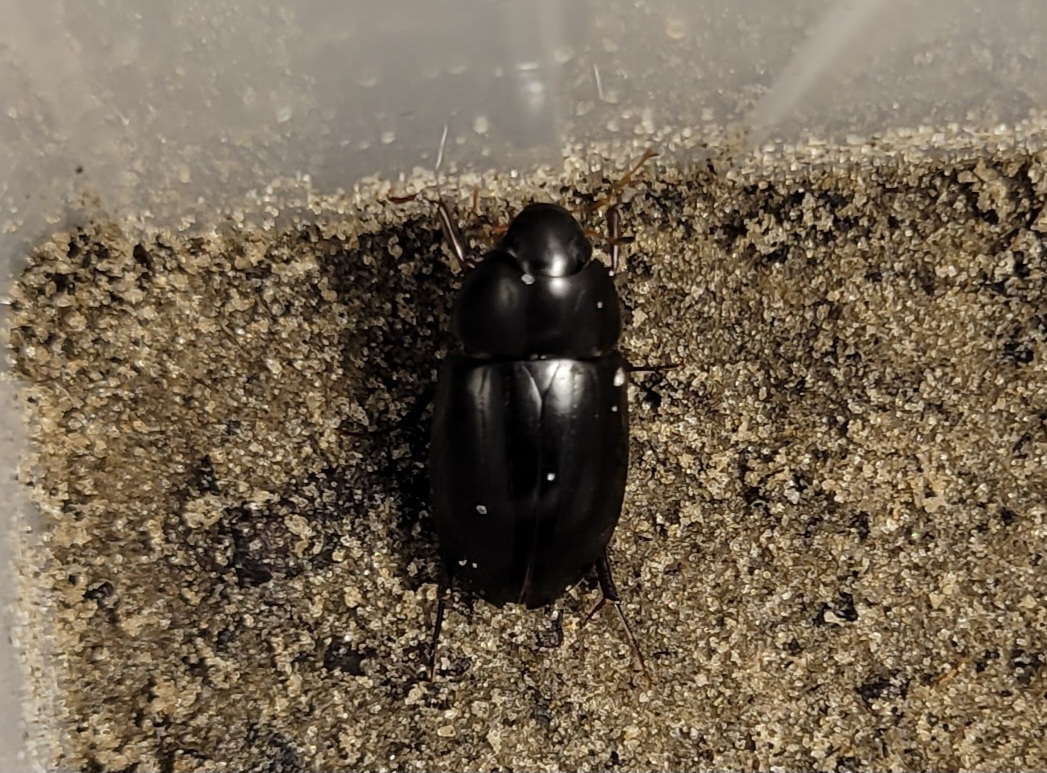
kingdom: Animalia
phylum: Arthropoda
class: Insecta
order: Coleoptera
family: Hydrophilidae
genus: Hydrobiomorpha
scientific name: Hydrobiomorpha casta
